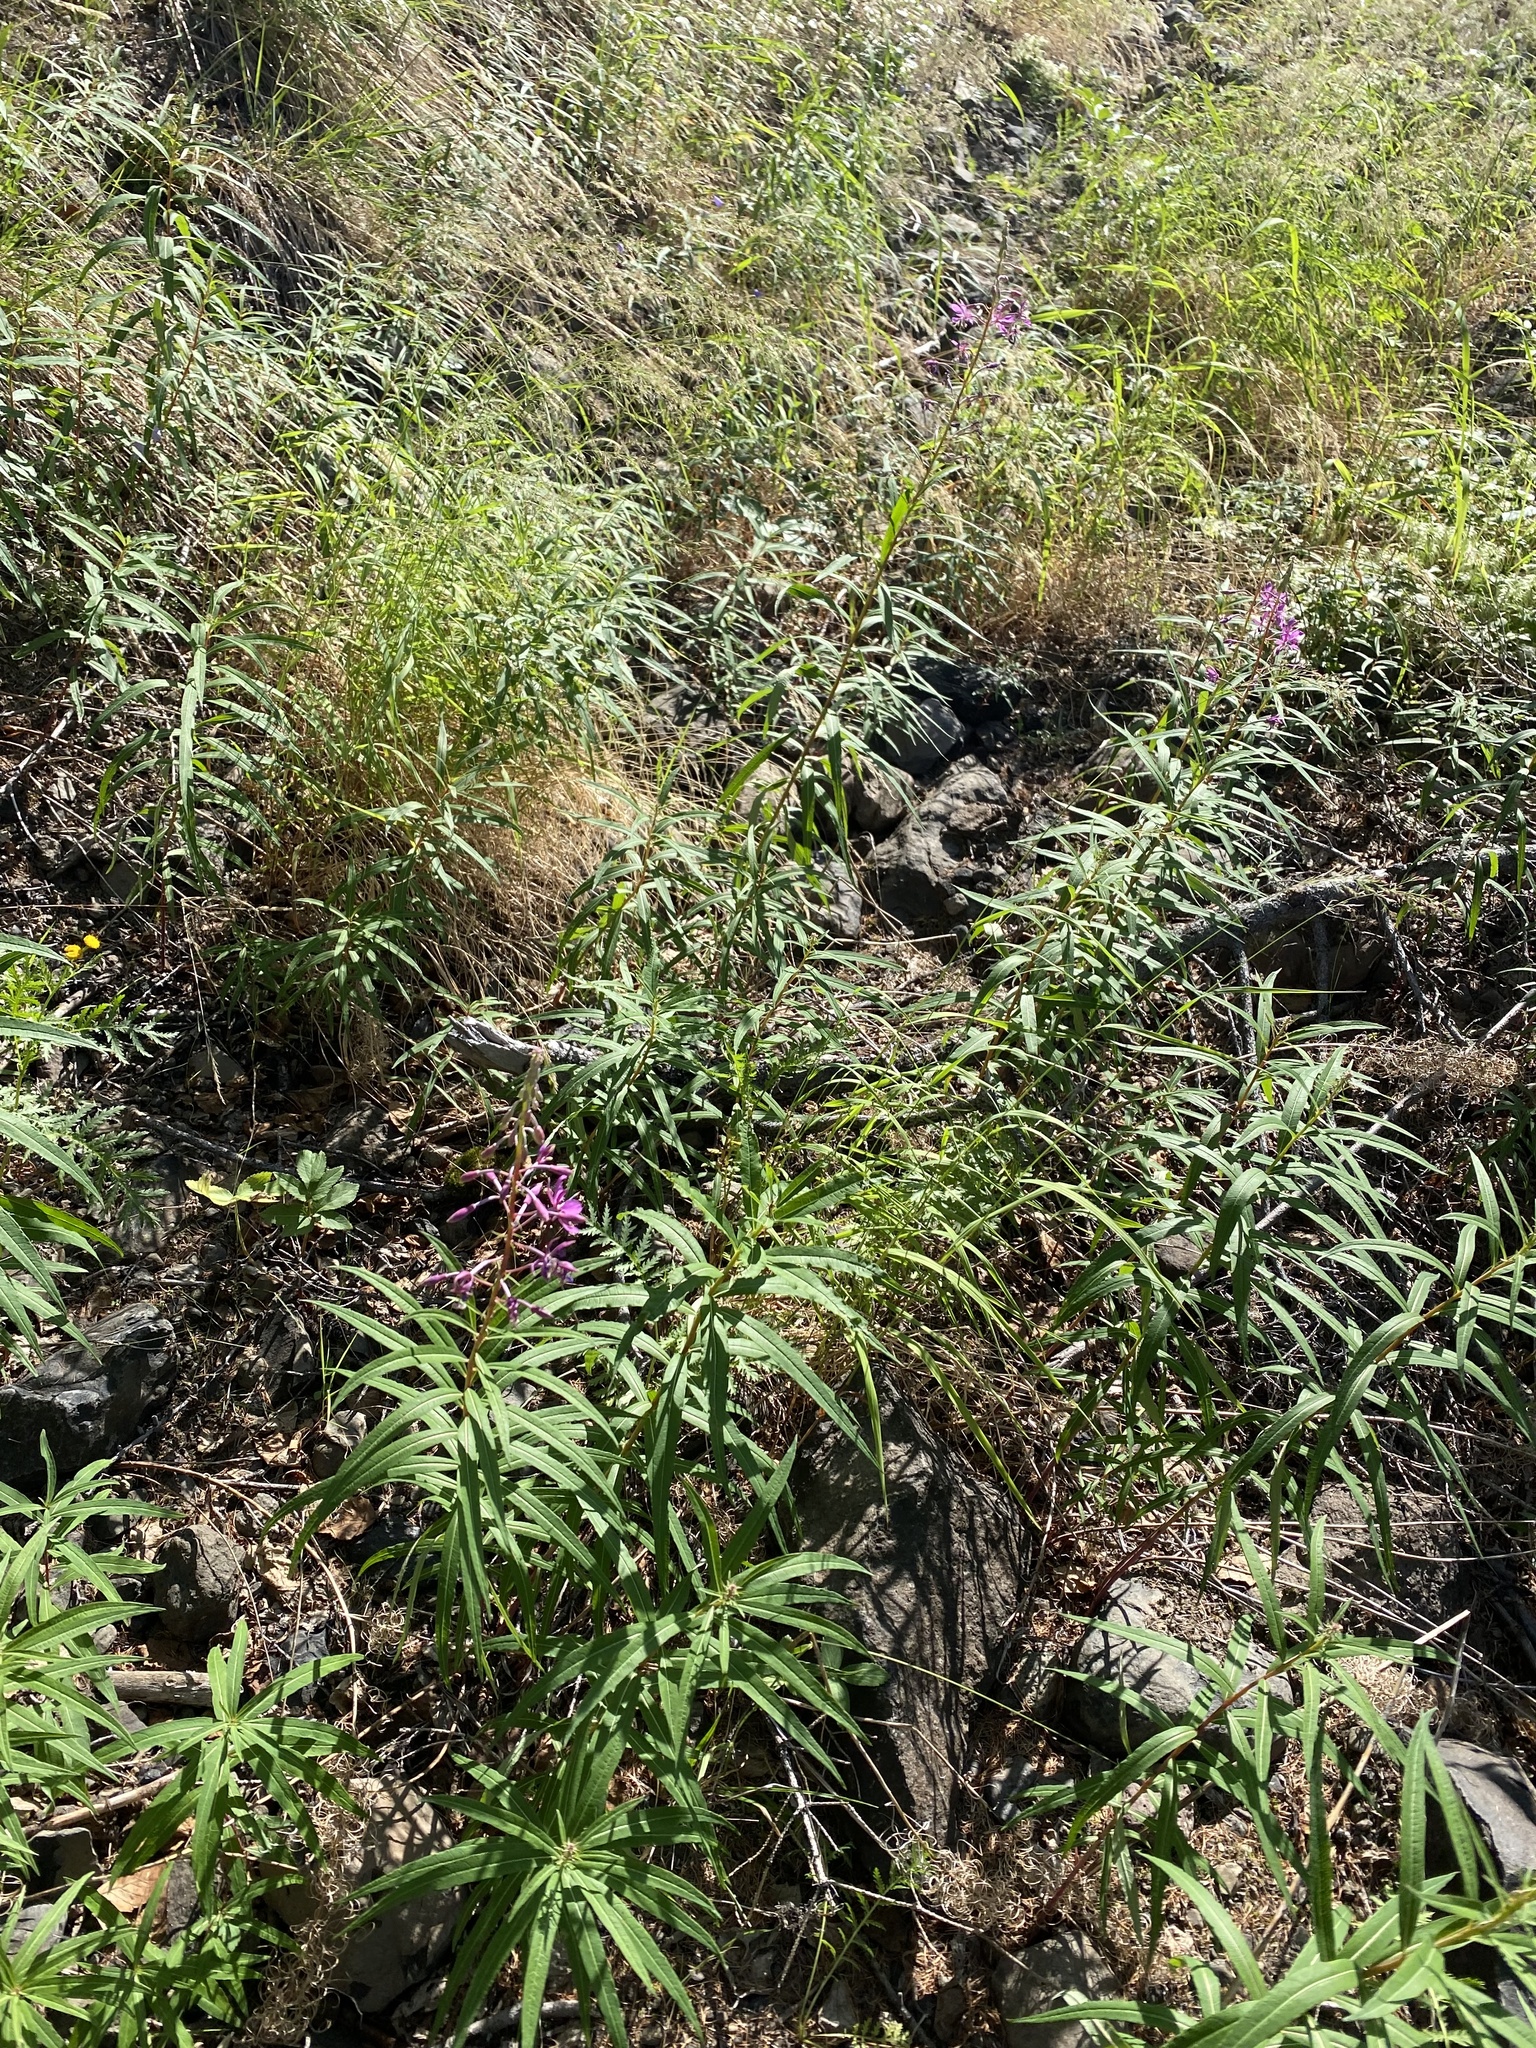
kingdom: Plantae
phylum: Tracheophyta
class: Magnoliopsida
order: Myrtales
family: Onagraceae
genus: Chamaenerion
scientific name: Chamaenerion angustifolium
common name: Fireweed
